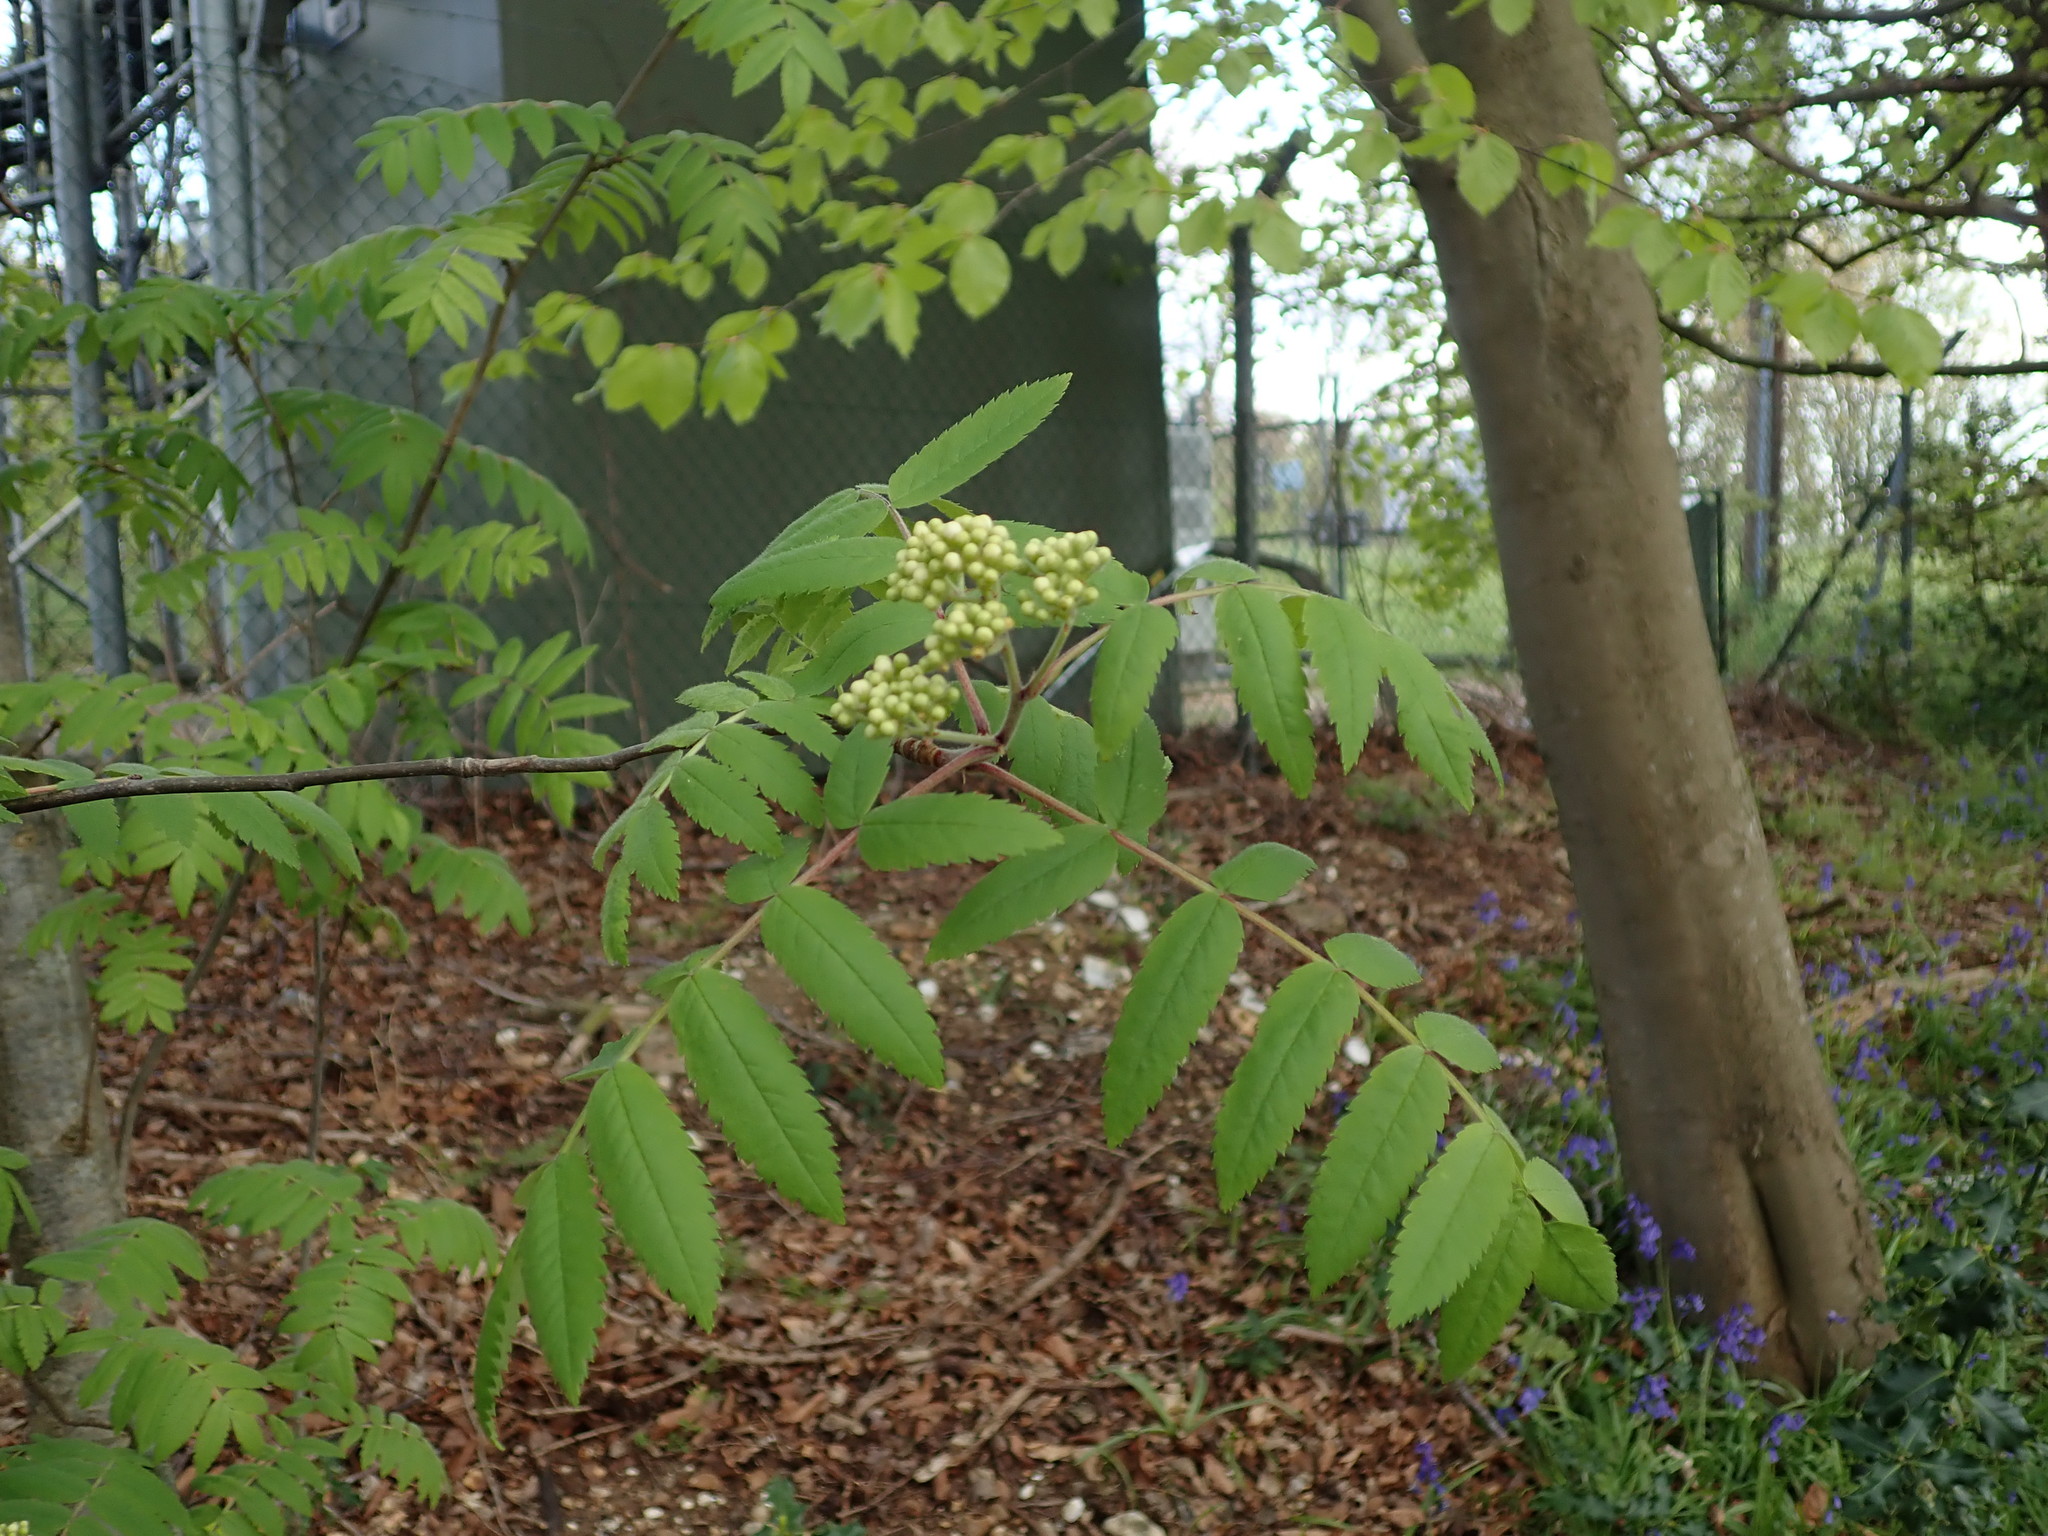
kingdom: Plantae
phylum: Tracheophyta
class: Magnoliopsida
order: Rosales
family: Rosaceae
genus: Sorbus
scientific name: Sorbus aucuparia
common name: Rowan
